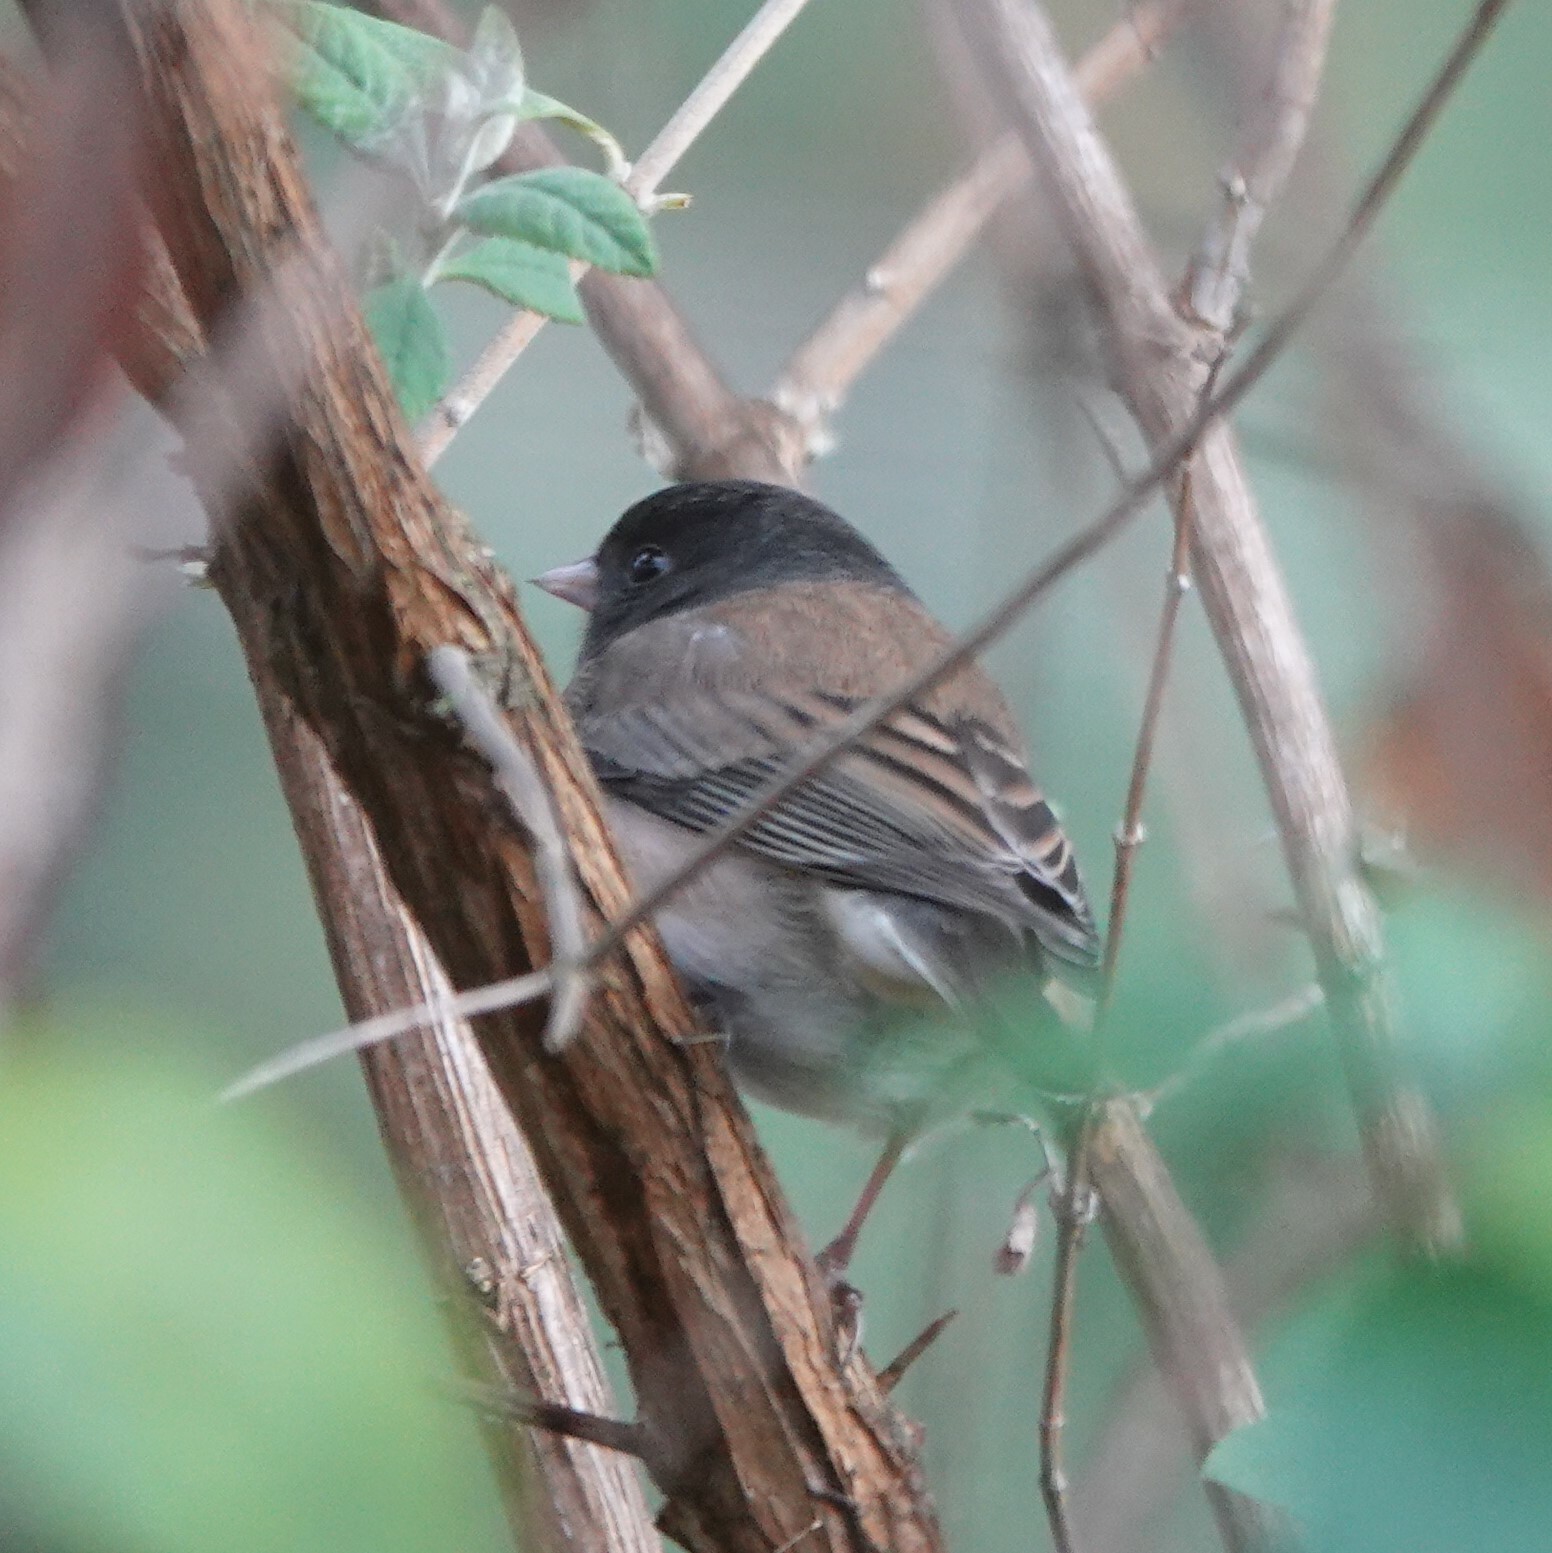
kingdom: Animalia
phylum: Chordata
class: Aves
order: Passeriformes
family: Passerellidae
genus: Junco
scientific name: Junco hyemalis
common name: Dark-eyed junco
